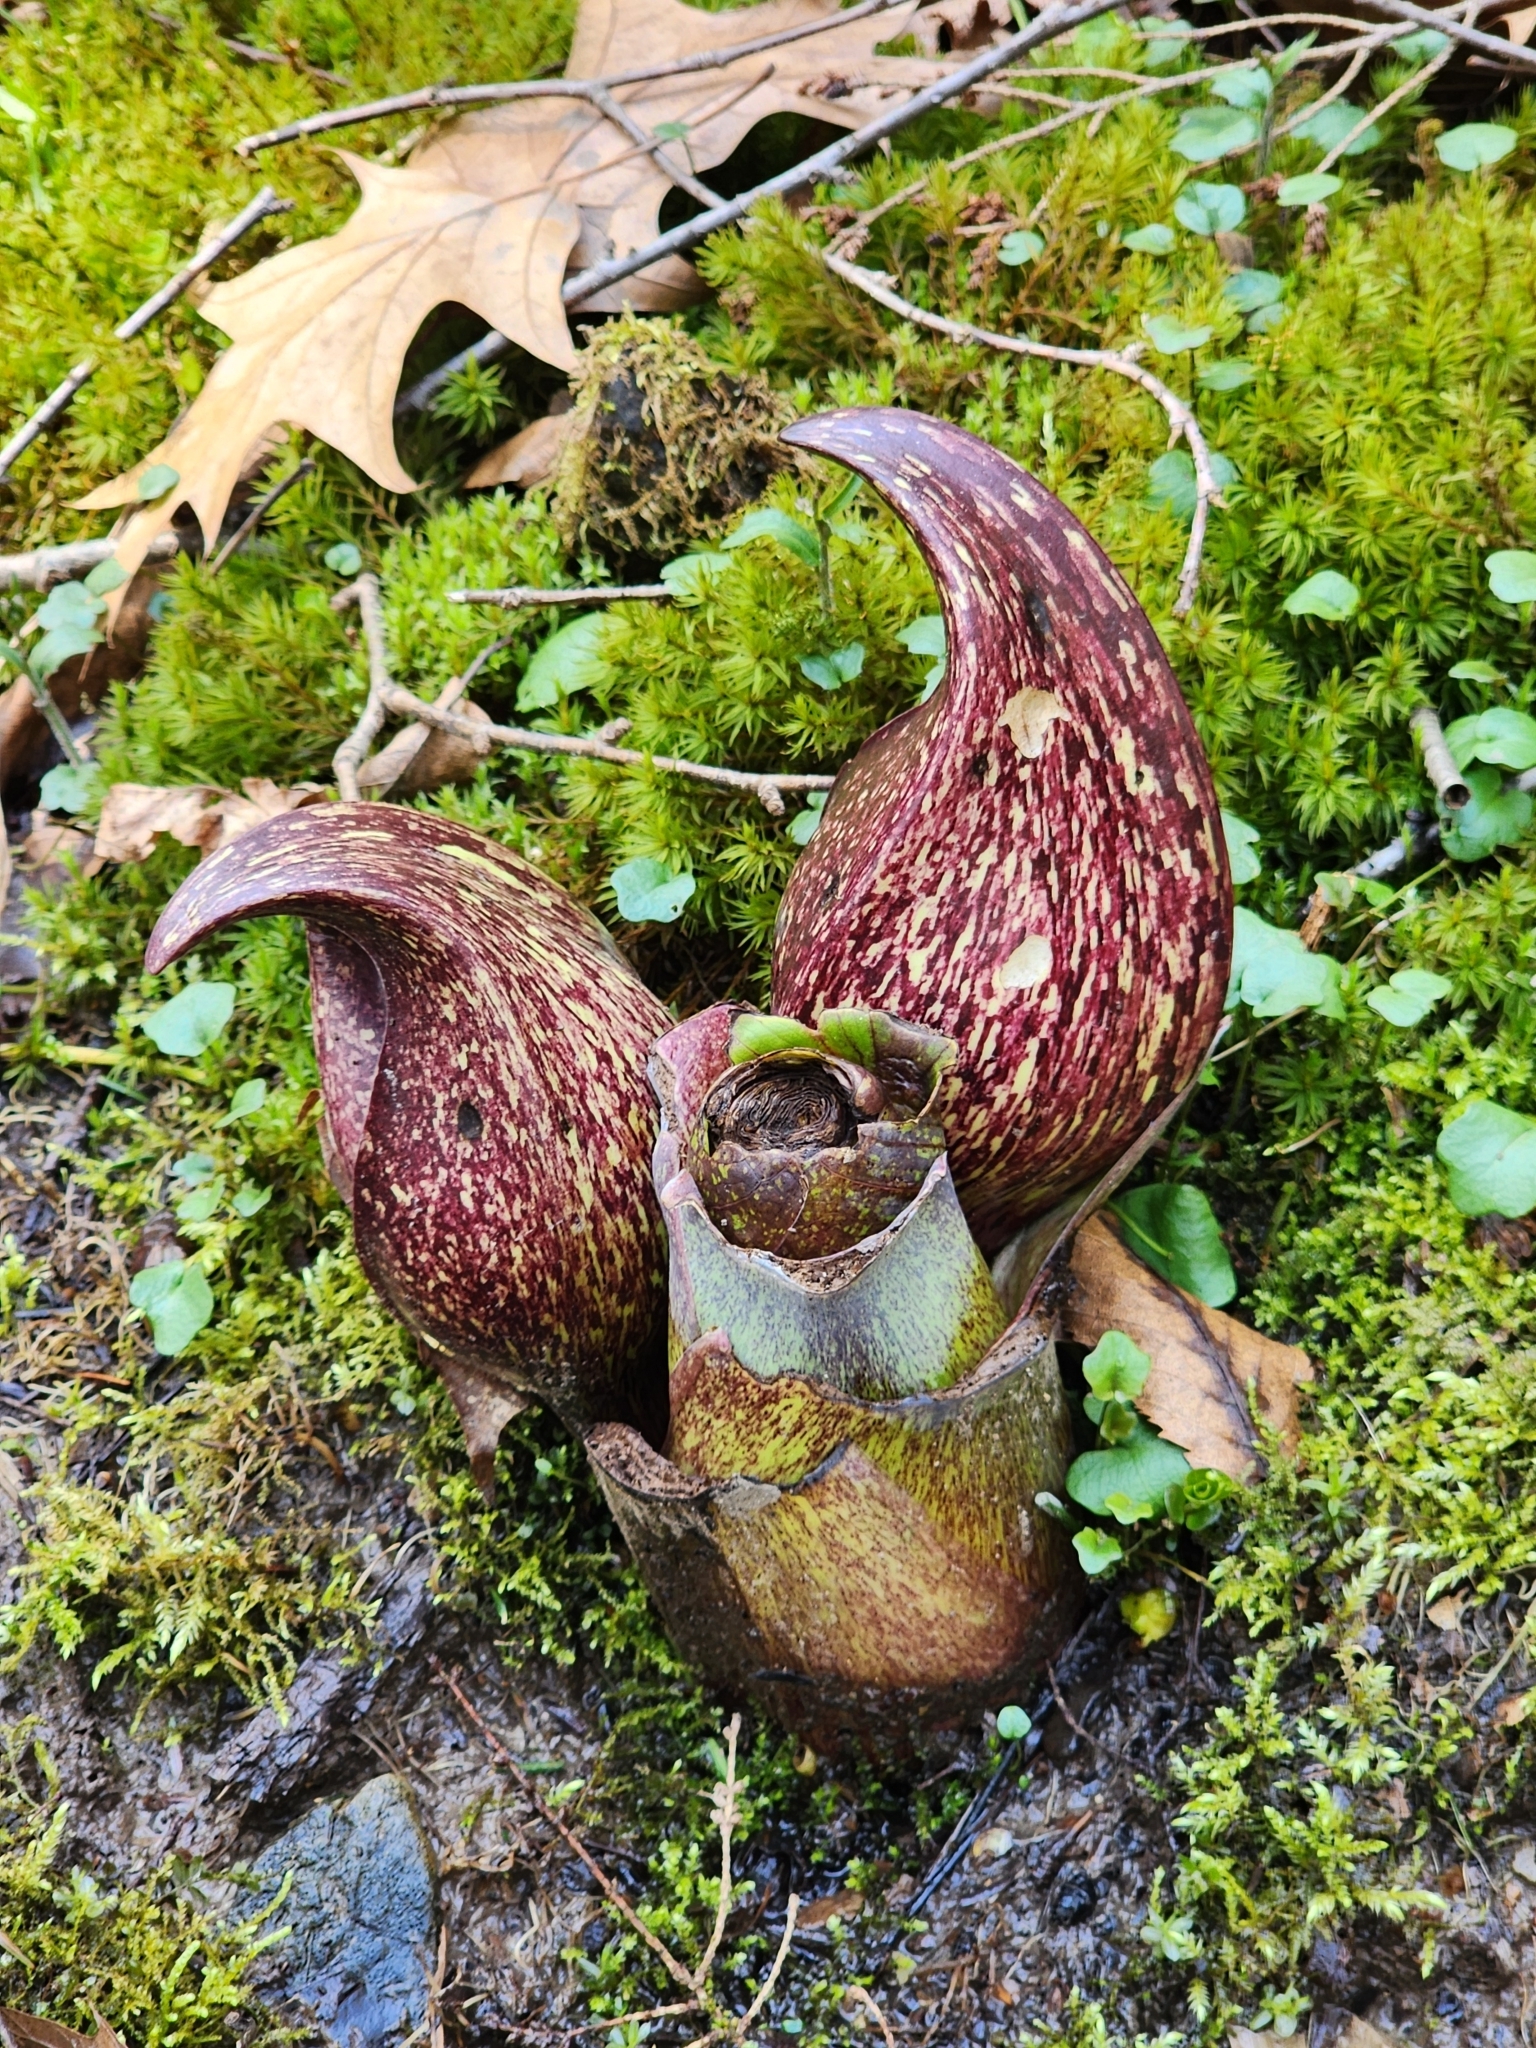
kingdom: Plantae
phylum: Tracheophyta
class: Liliopsida
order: Alismatales
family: Araceae
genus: Symplocarpus
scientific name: Symplocarpus foetidus
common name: Eastern skunk cabbage
